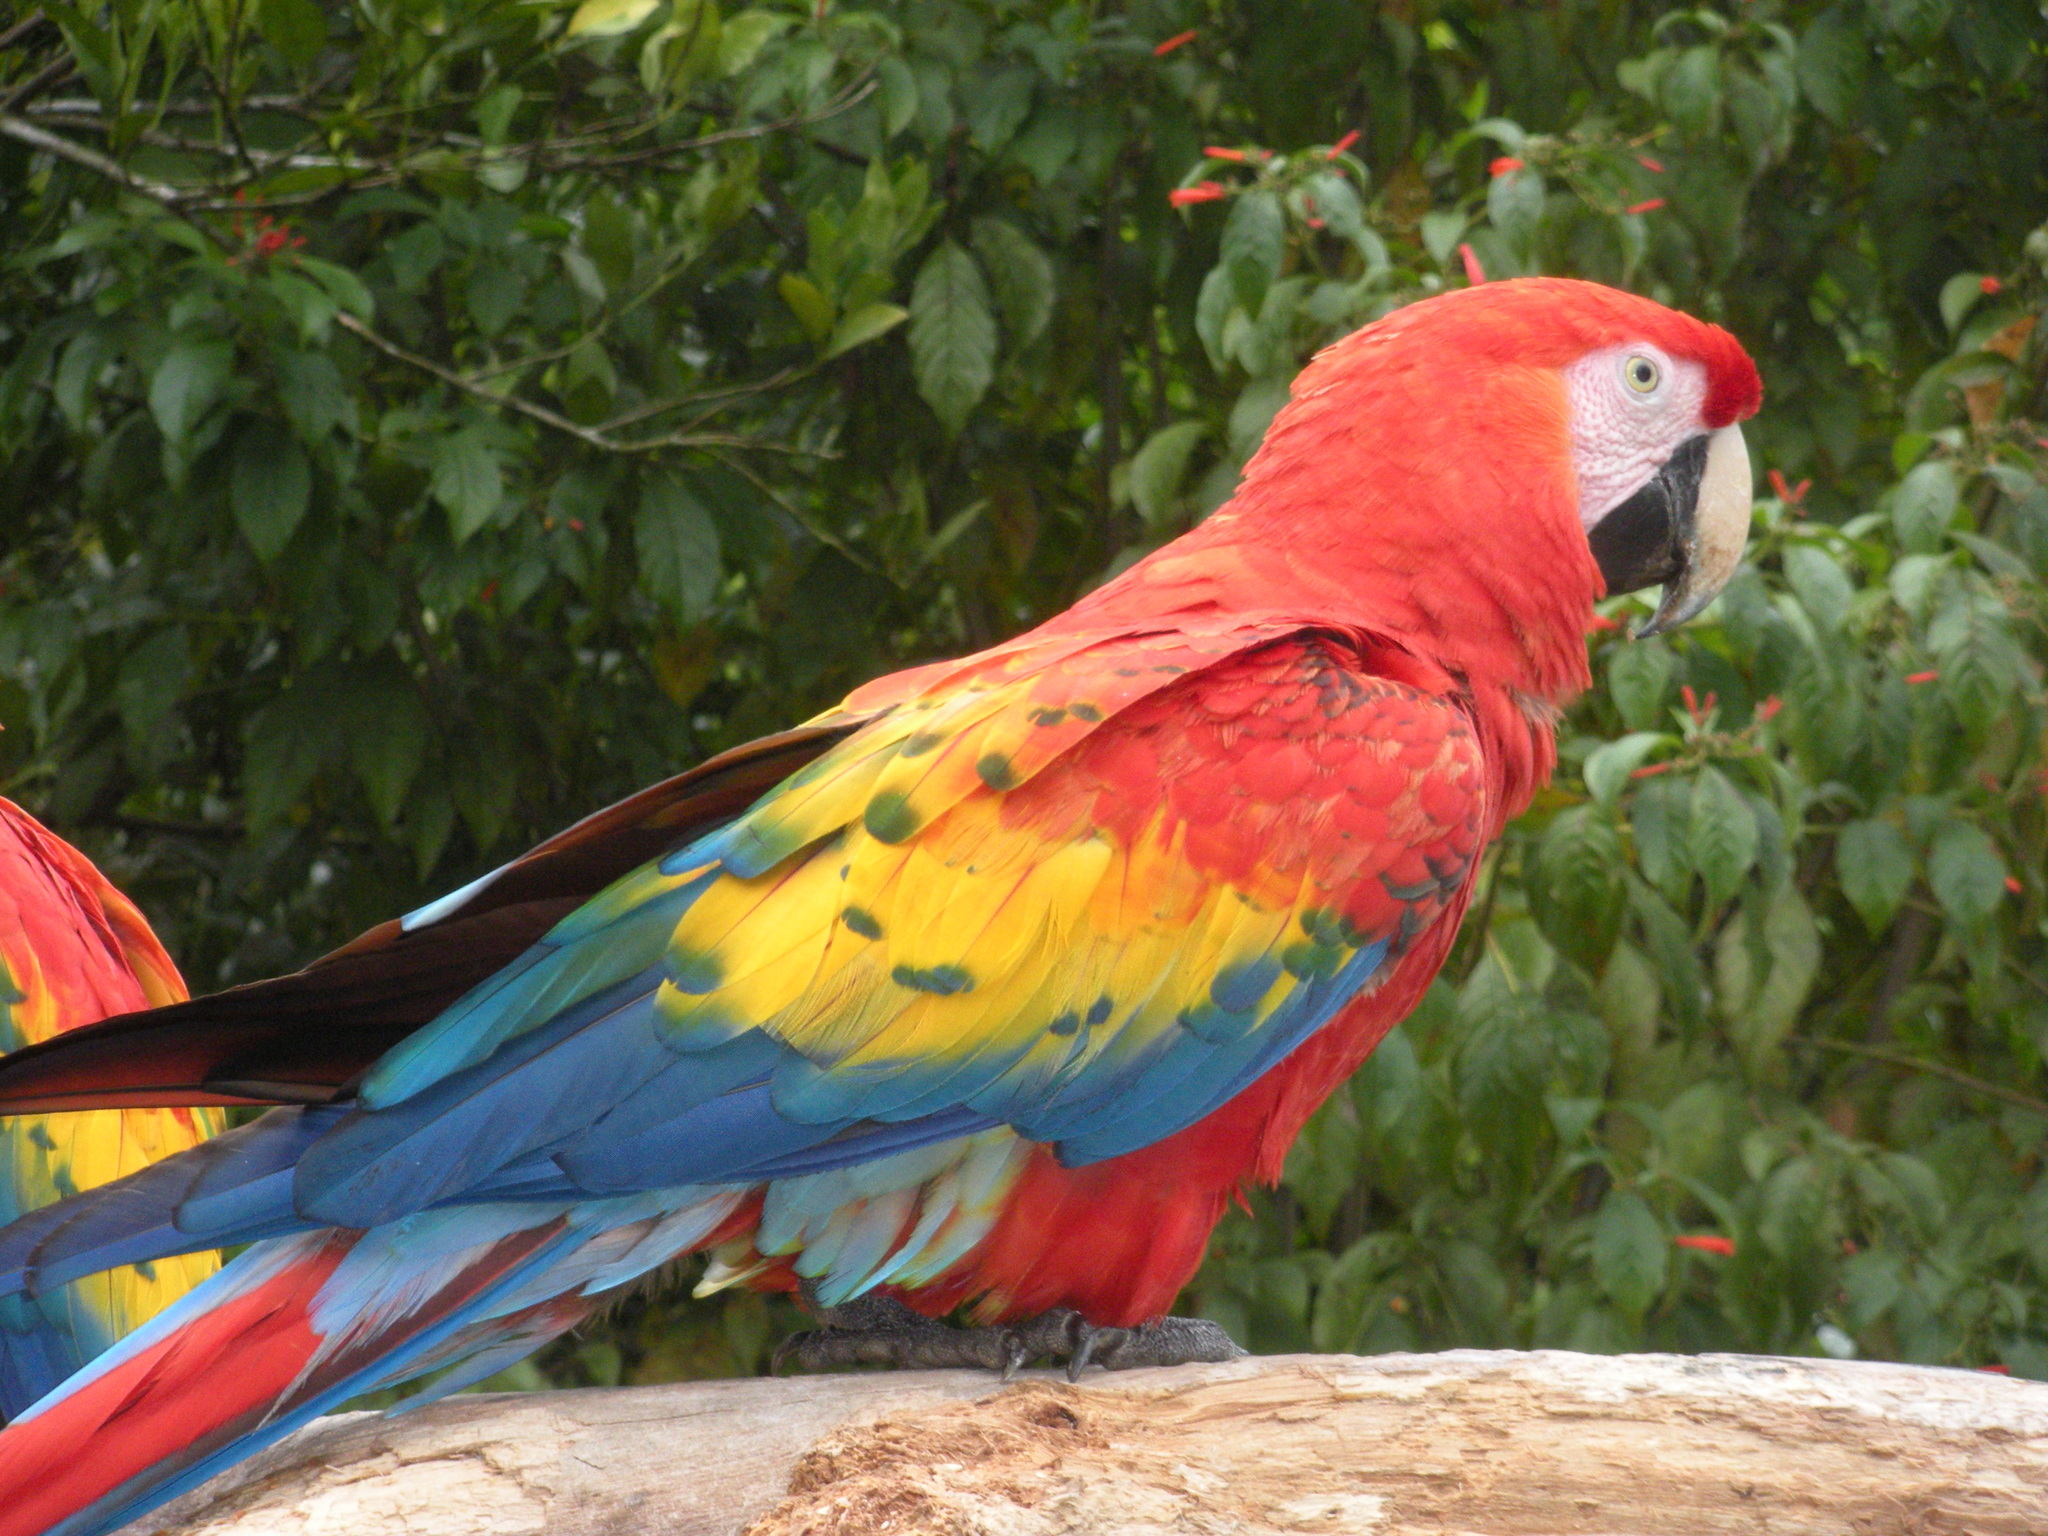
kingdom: Animalia
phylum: Chordata
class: Aves
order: Psittaciformes
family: Psittacidae
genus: Ara
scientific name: Ara macao
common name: Scarlet macaw
